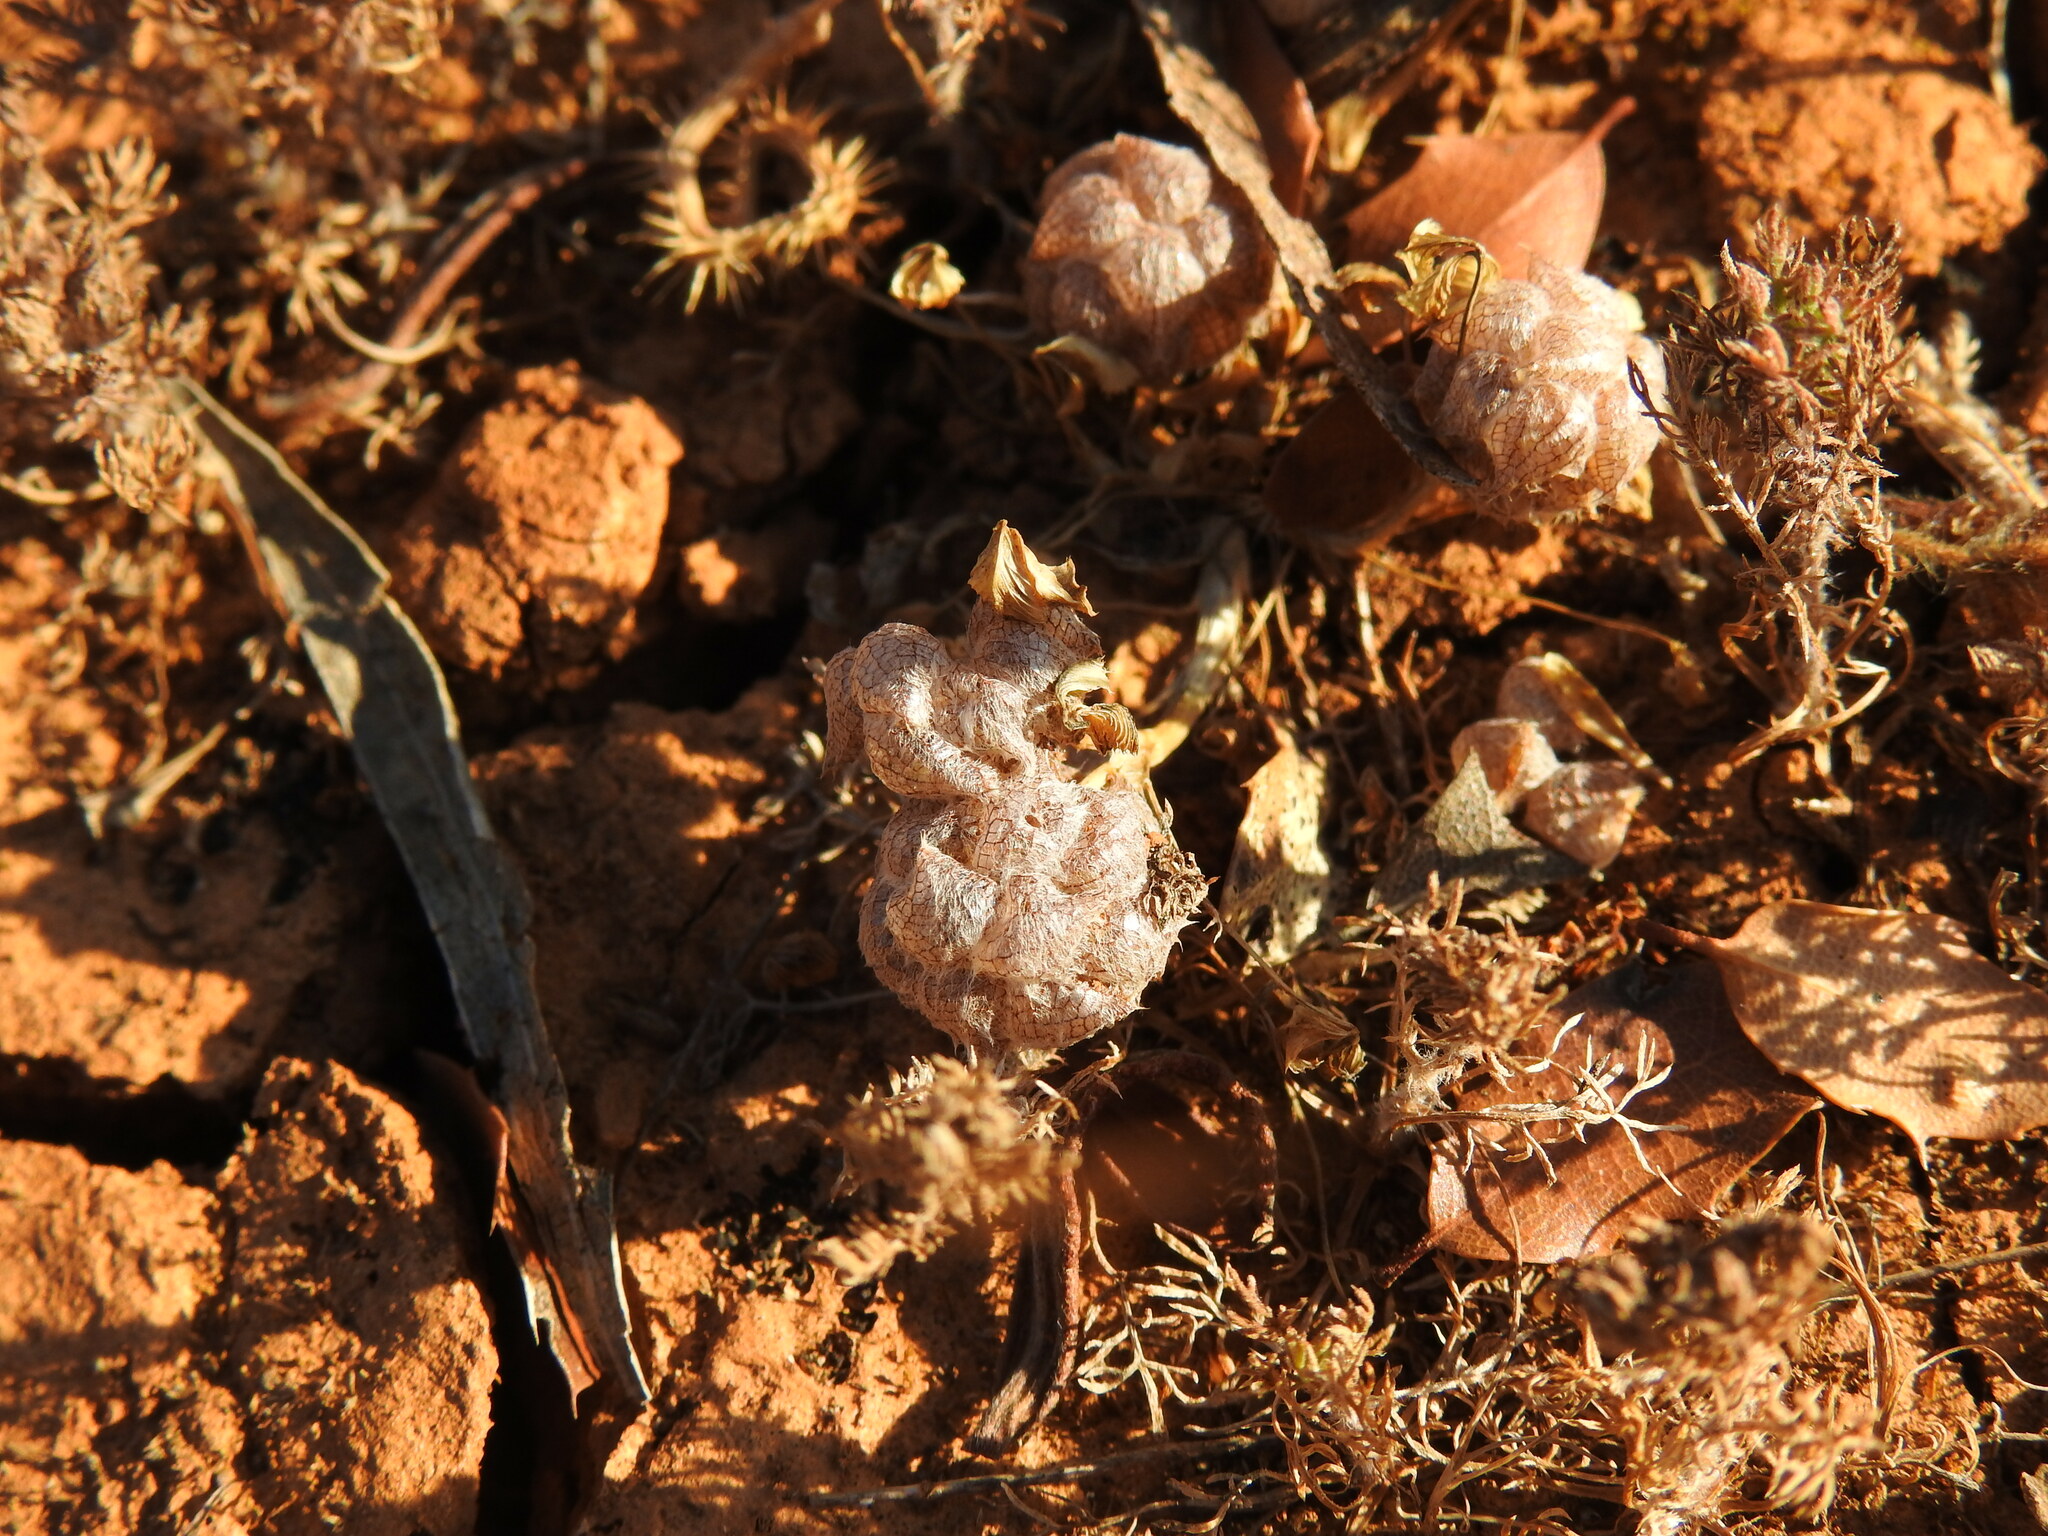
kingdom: Plantae
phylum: Tracheophyta
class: Magnoliopsida
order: Fabales
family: Fabaceae
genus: Trifolium
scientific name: Trifolium tomentosum
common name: Woolly clover
